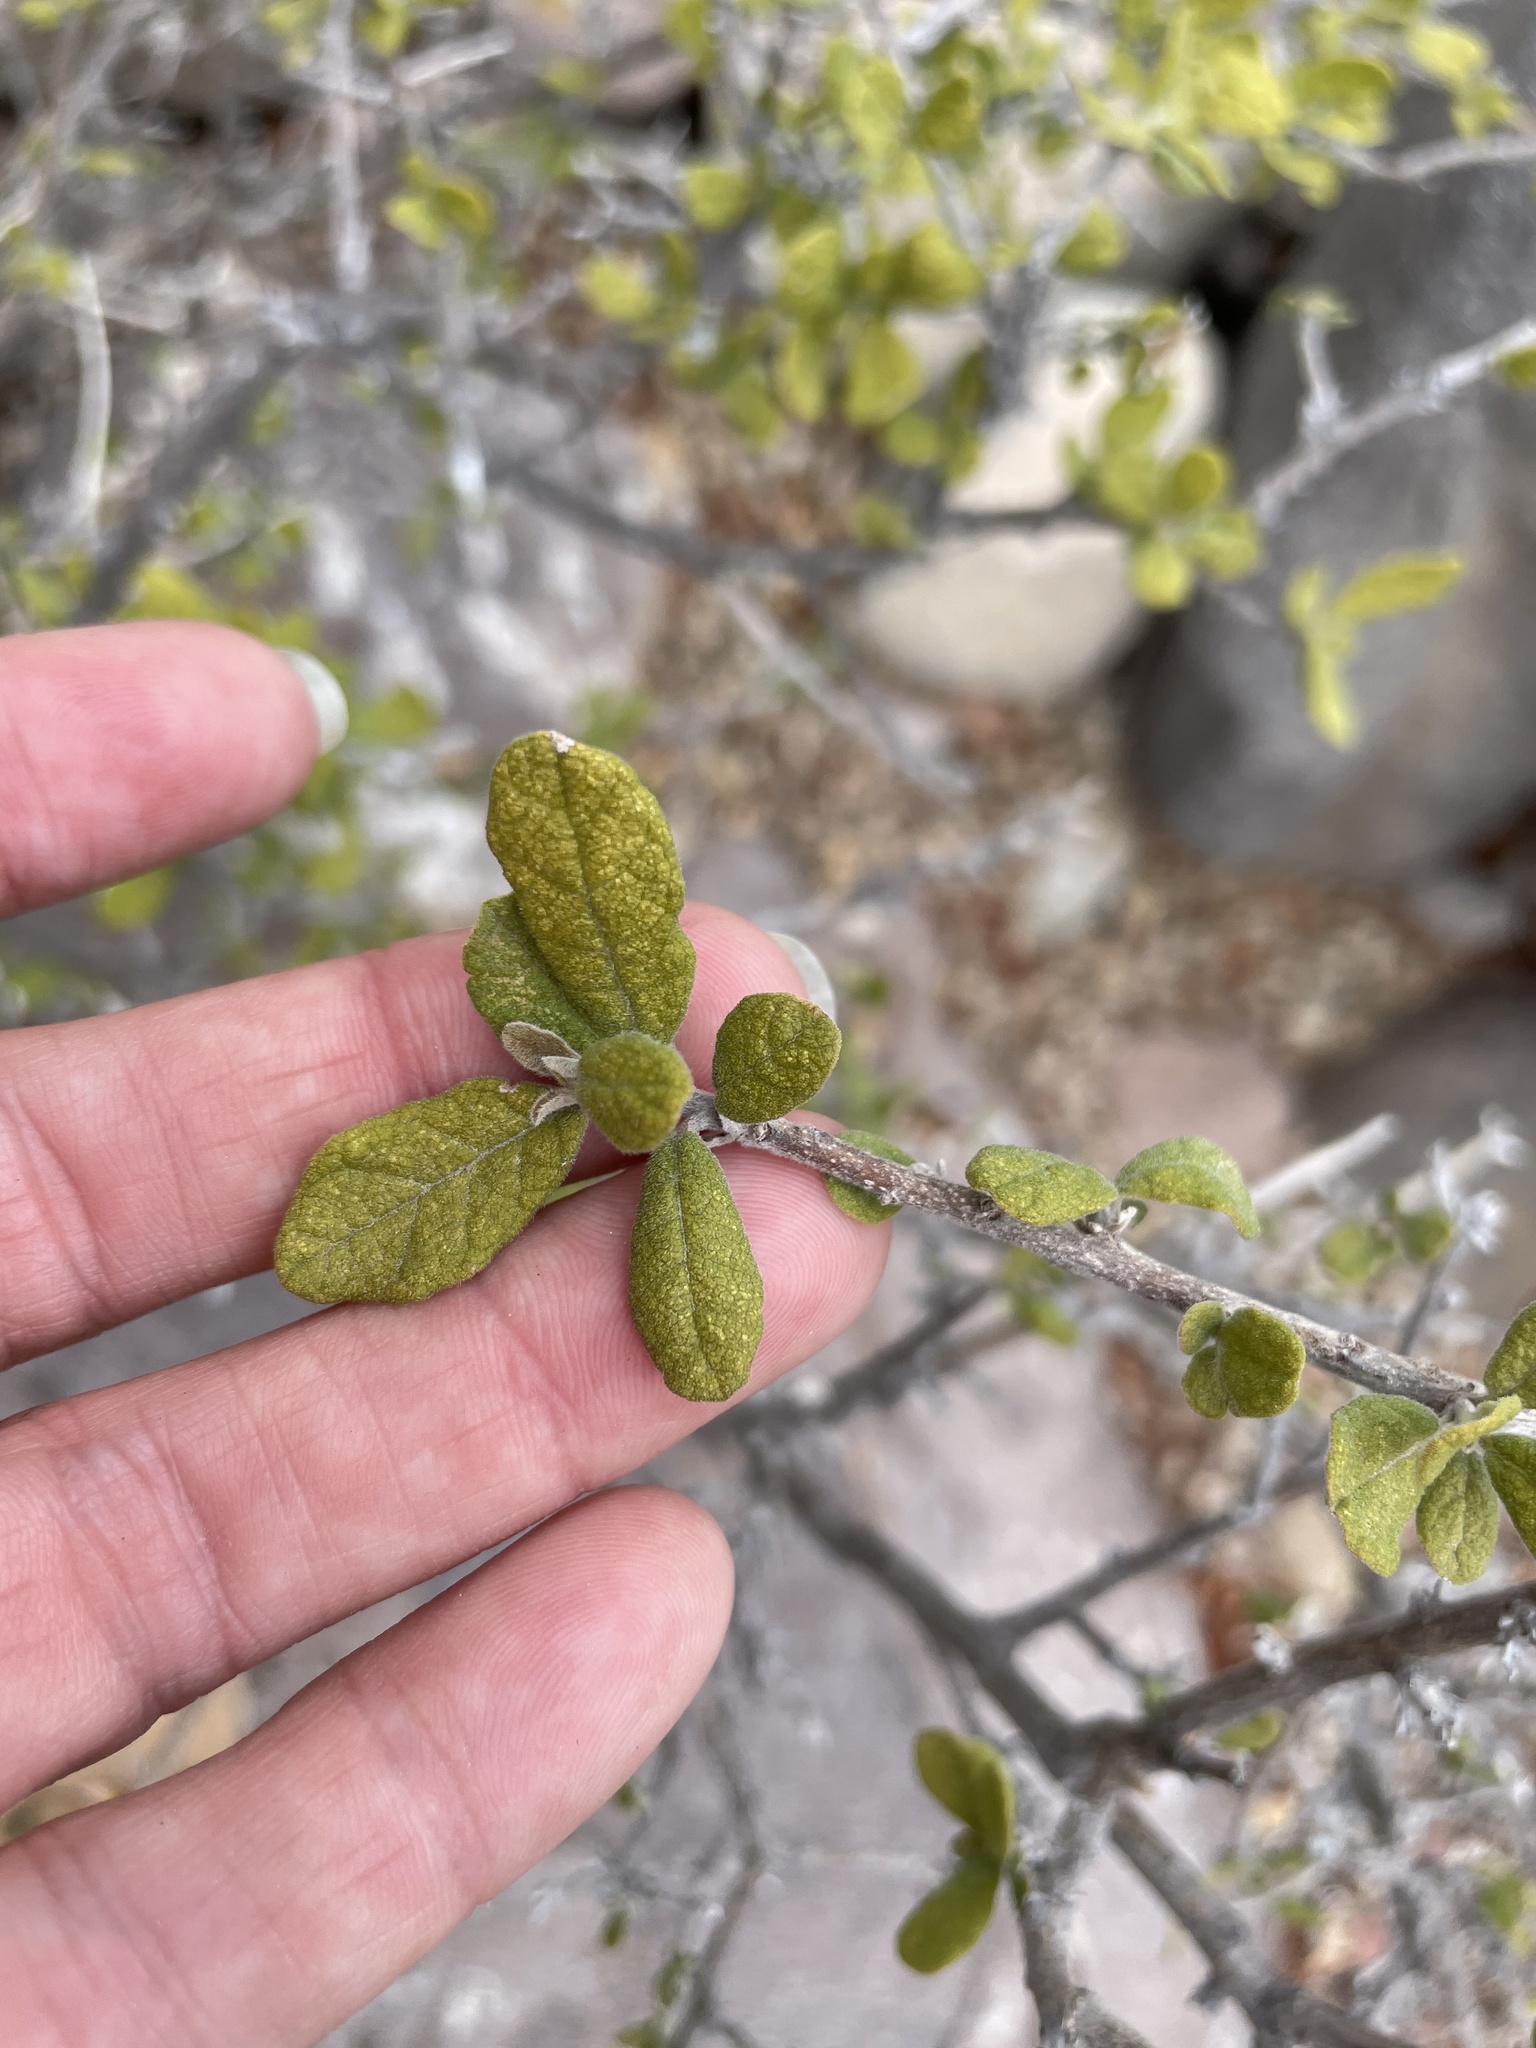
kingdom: Plantae
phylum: Tracheophyta
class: Magnoliopsida
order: Boraginales
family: Ehretiaceae
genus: Bourreria
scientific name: Bourreria sonorae
